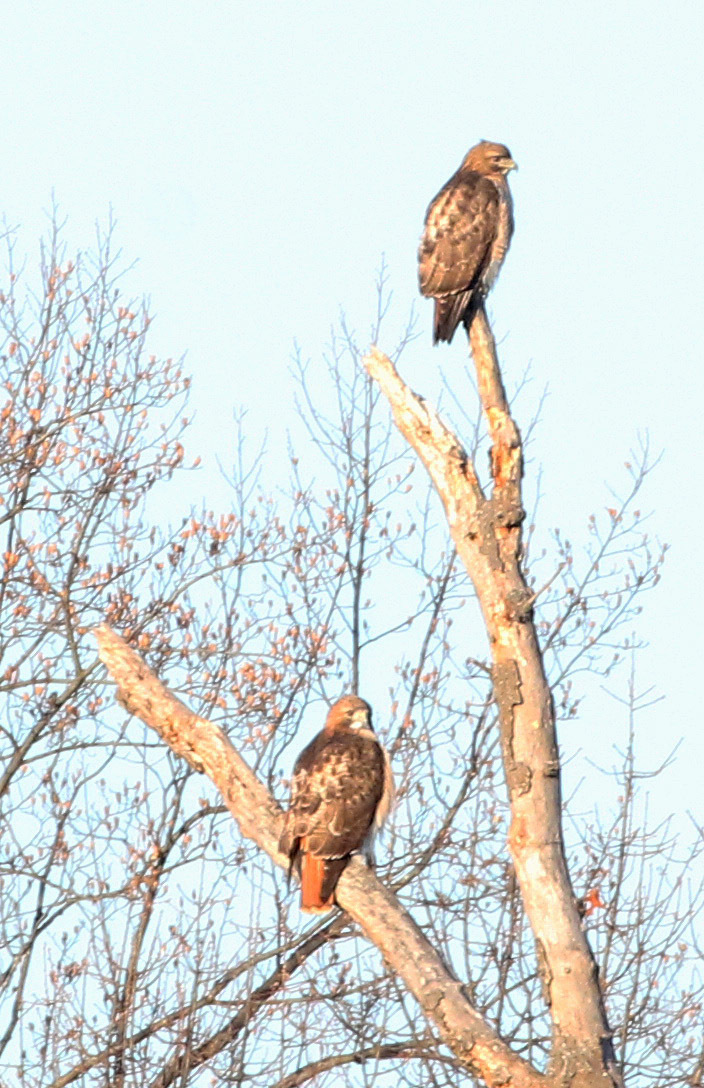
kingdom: Animalia
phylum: Chordata
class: Aves
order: Accipitriformes
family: Accipitridae
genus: Buteo
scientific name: Buteo jamaicensis
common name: Red-tailed hawk
